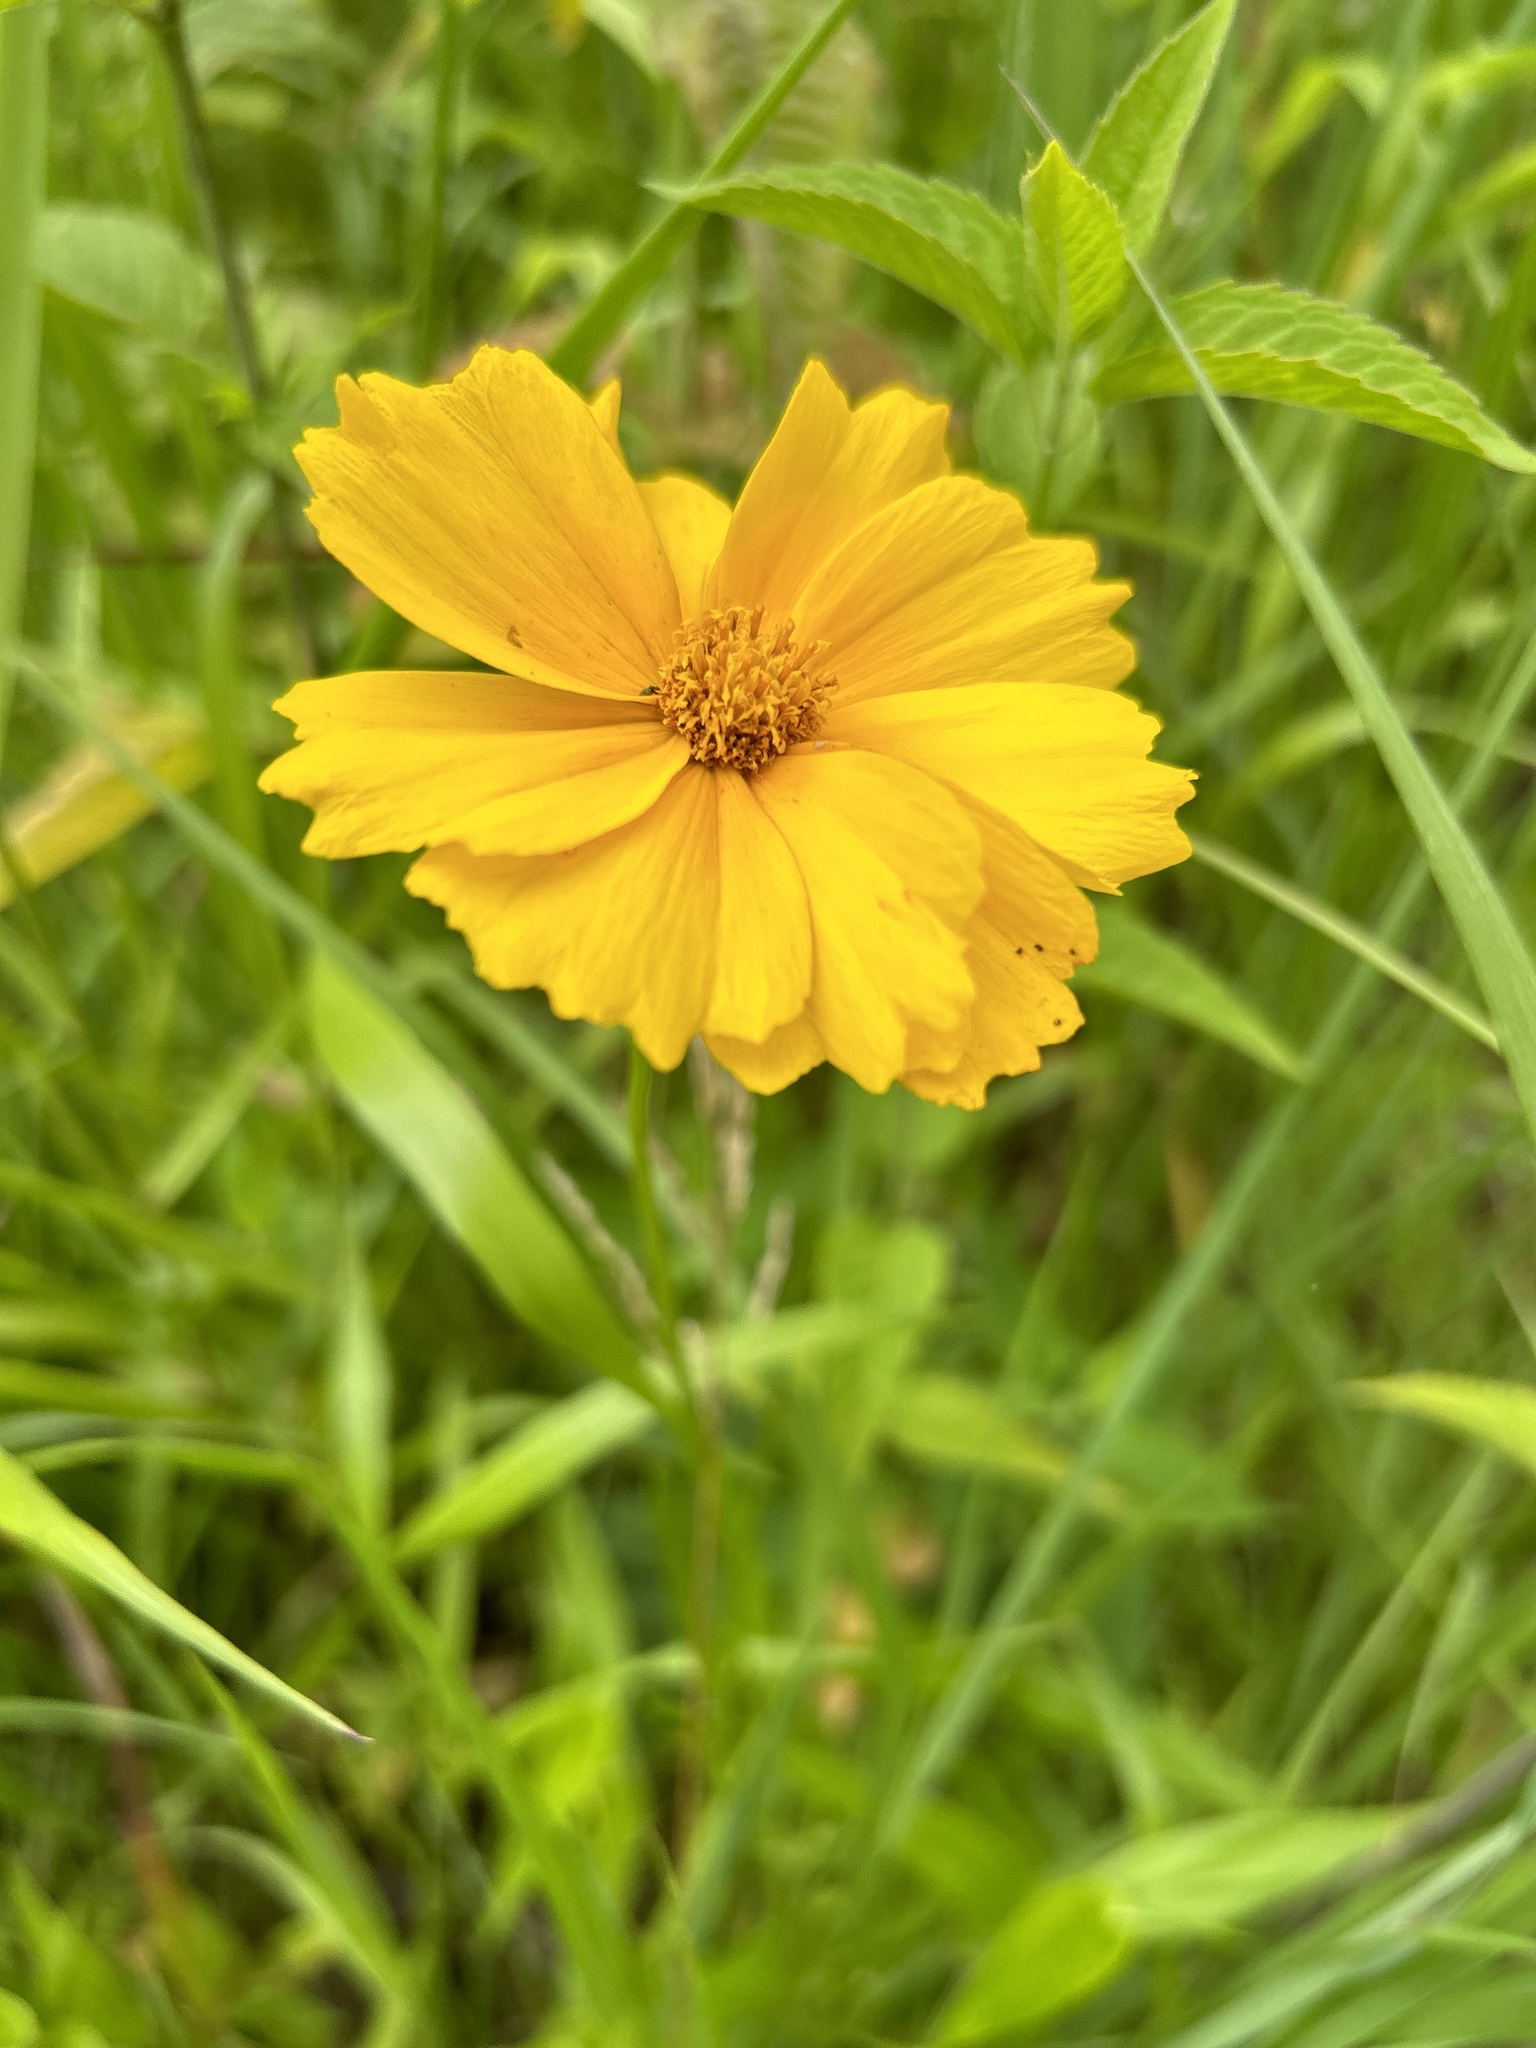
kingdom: Plantae
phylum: Tracheophyta
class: Magnoliopsida
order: Asterales
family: Asteraceae
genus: Coreopsis
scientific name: Coreopsis lanceolata
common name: Garden coreopsis
